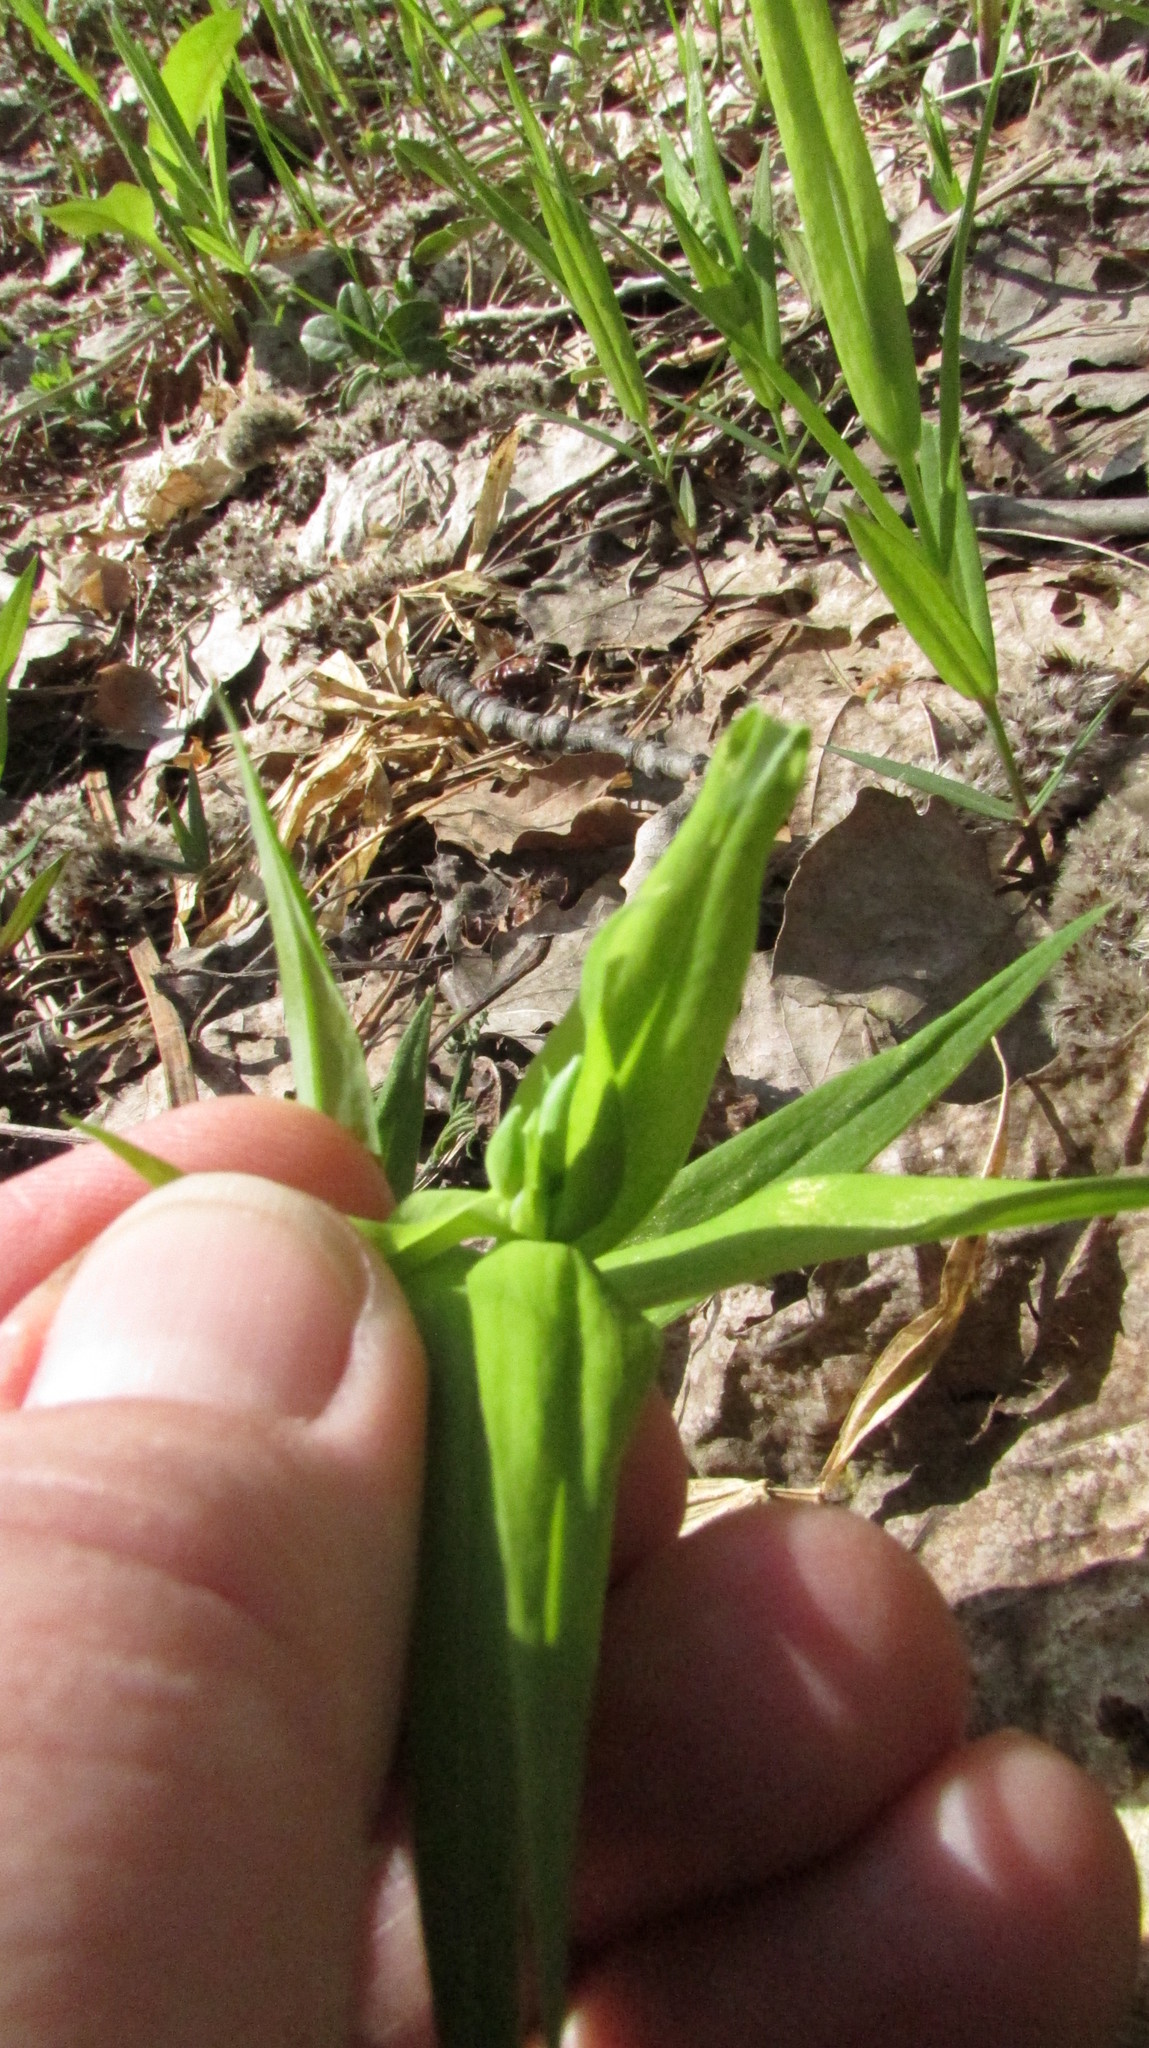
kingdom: Plantae
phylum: Tracheophyta
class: Magnoliopsida
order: Caryophyllales
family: Caryophyllaceae
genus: Rabelera
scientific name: Rabelera holostea
